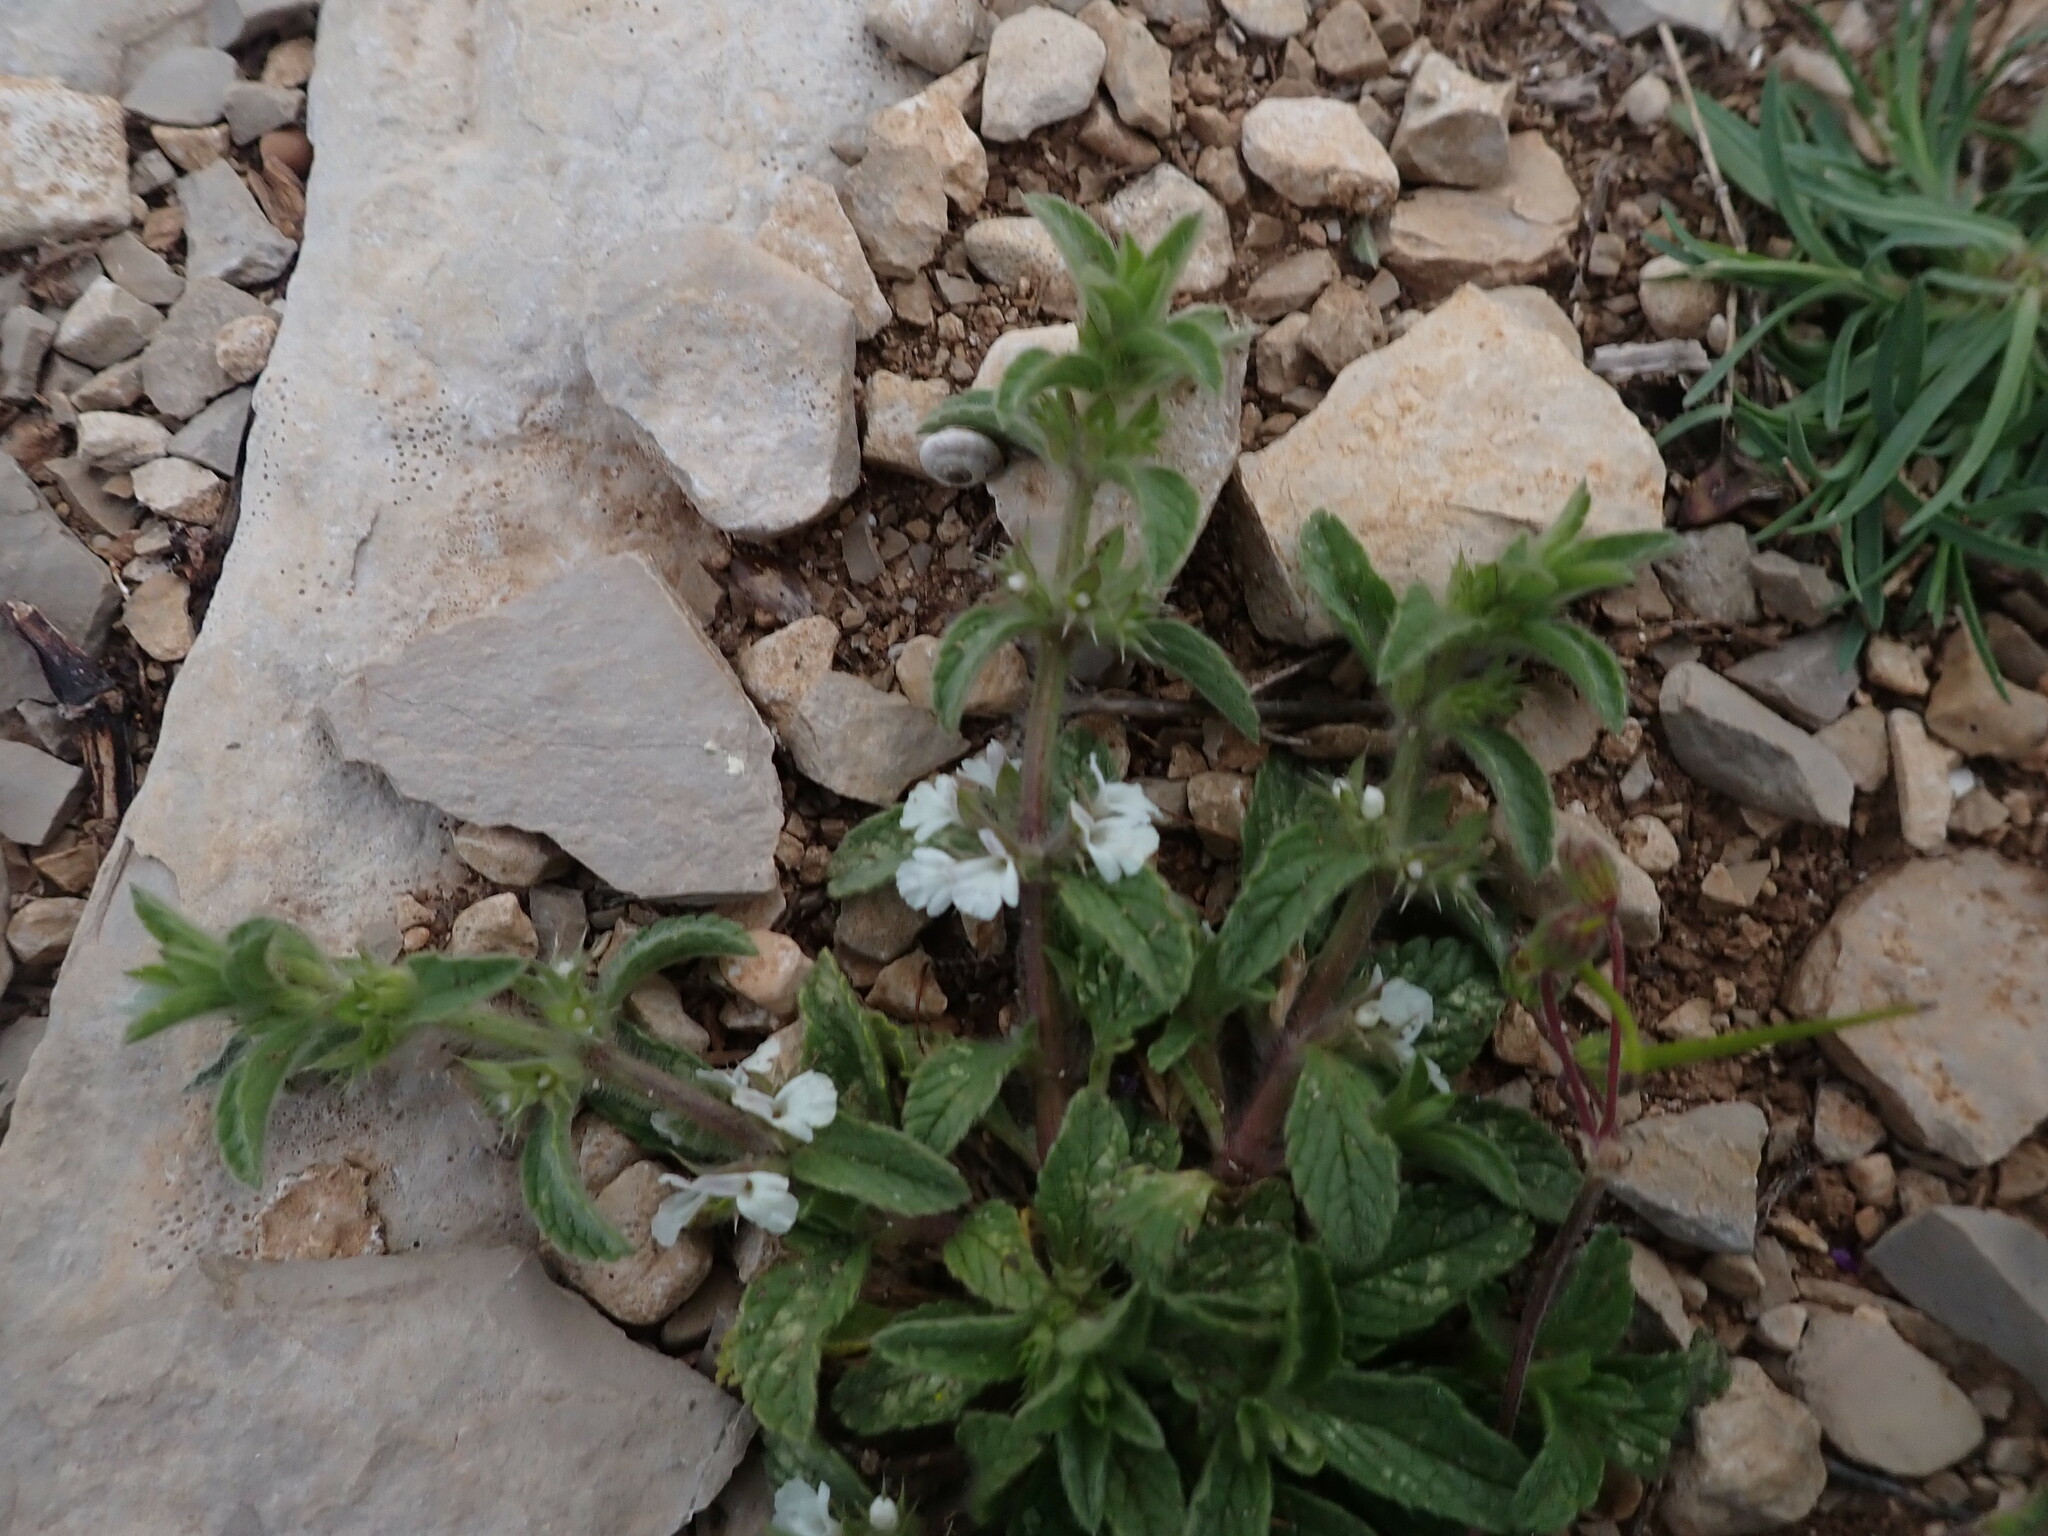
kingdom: Plantae
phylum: Tracheophyta
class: Magnoliopsida
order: Lamiales
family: Lamiaceae
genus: Sideritis
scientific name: Sideritis romana
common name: Simplebeak ironwort
